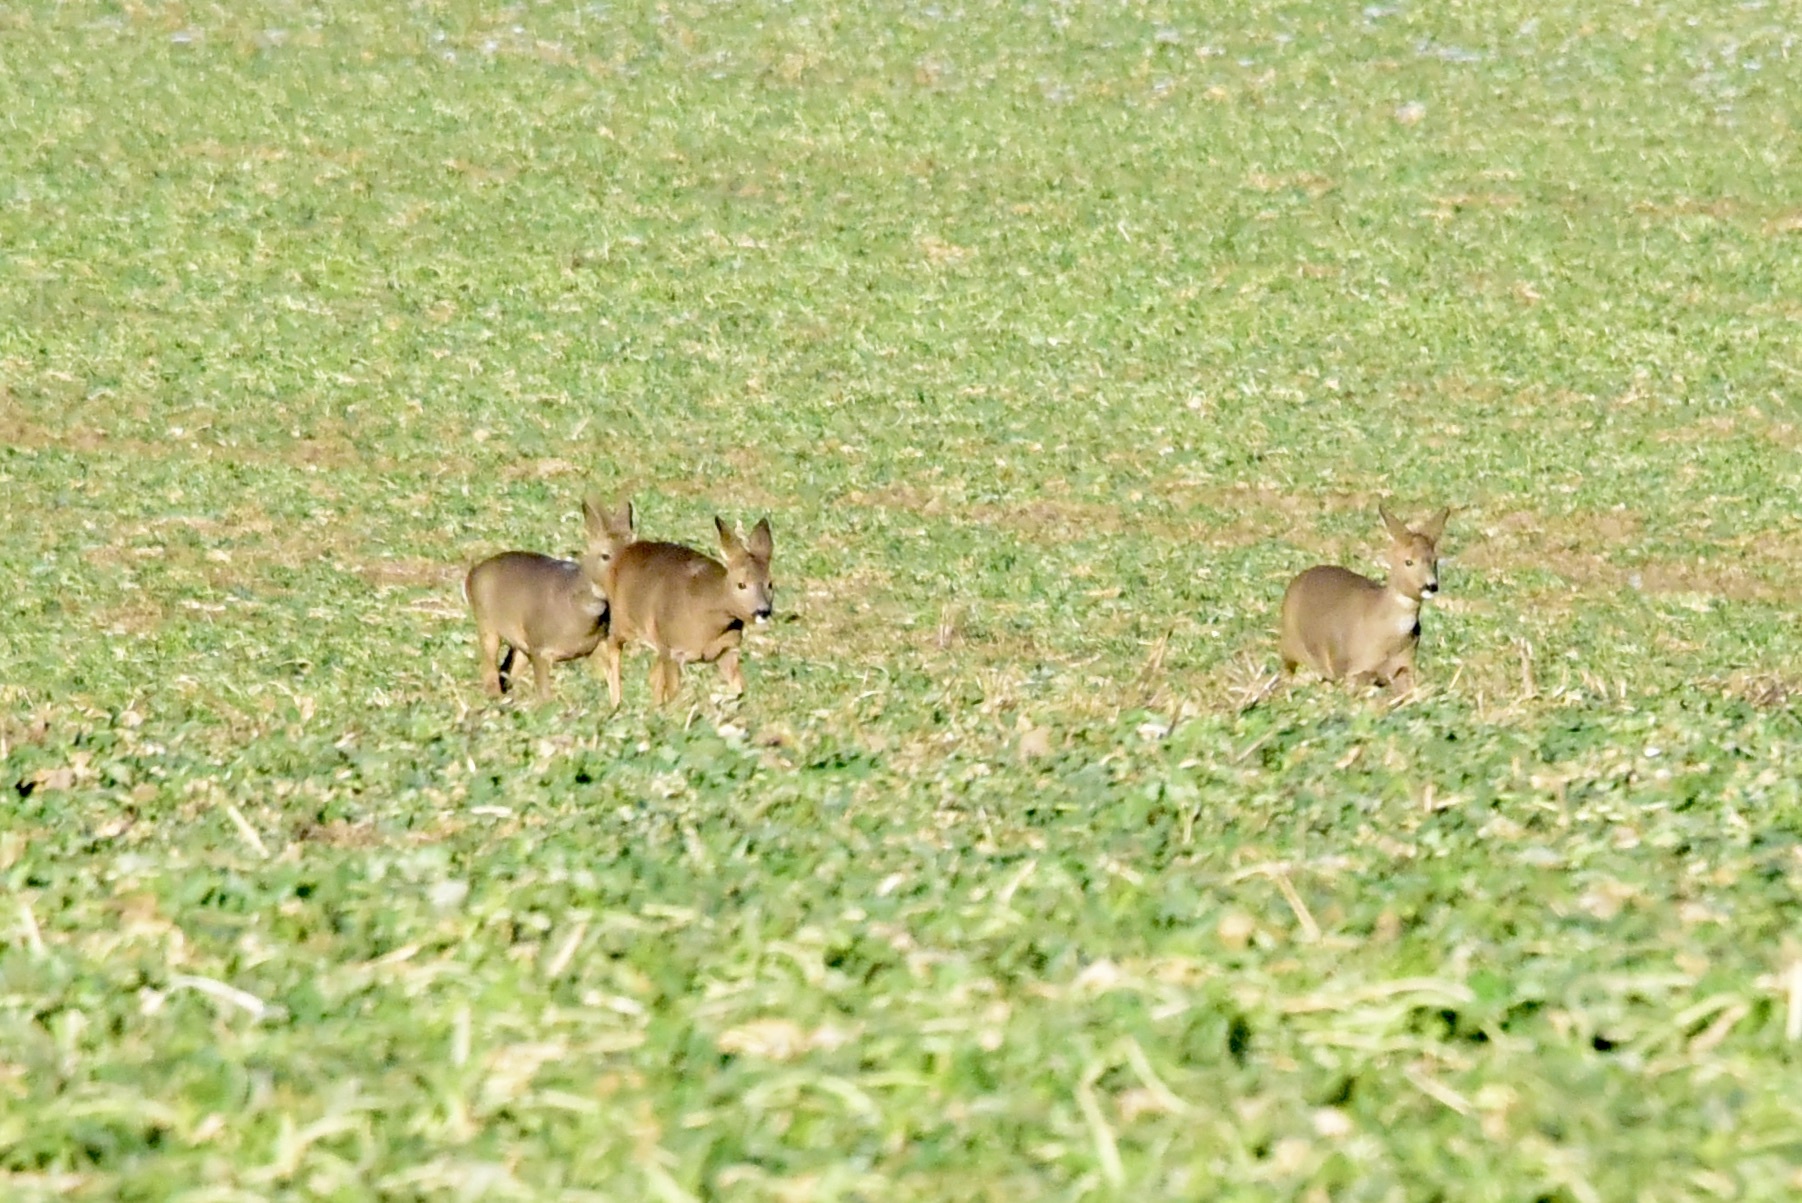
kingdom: Animalia
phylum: Chordata
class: Mammalia
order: Artiodactyla
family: Cervidae
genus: Capreolus
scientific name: Capreolus capreolus
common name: Western roe deer
